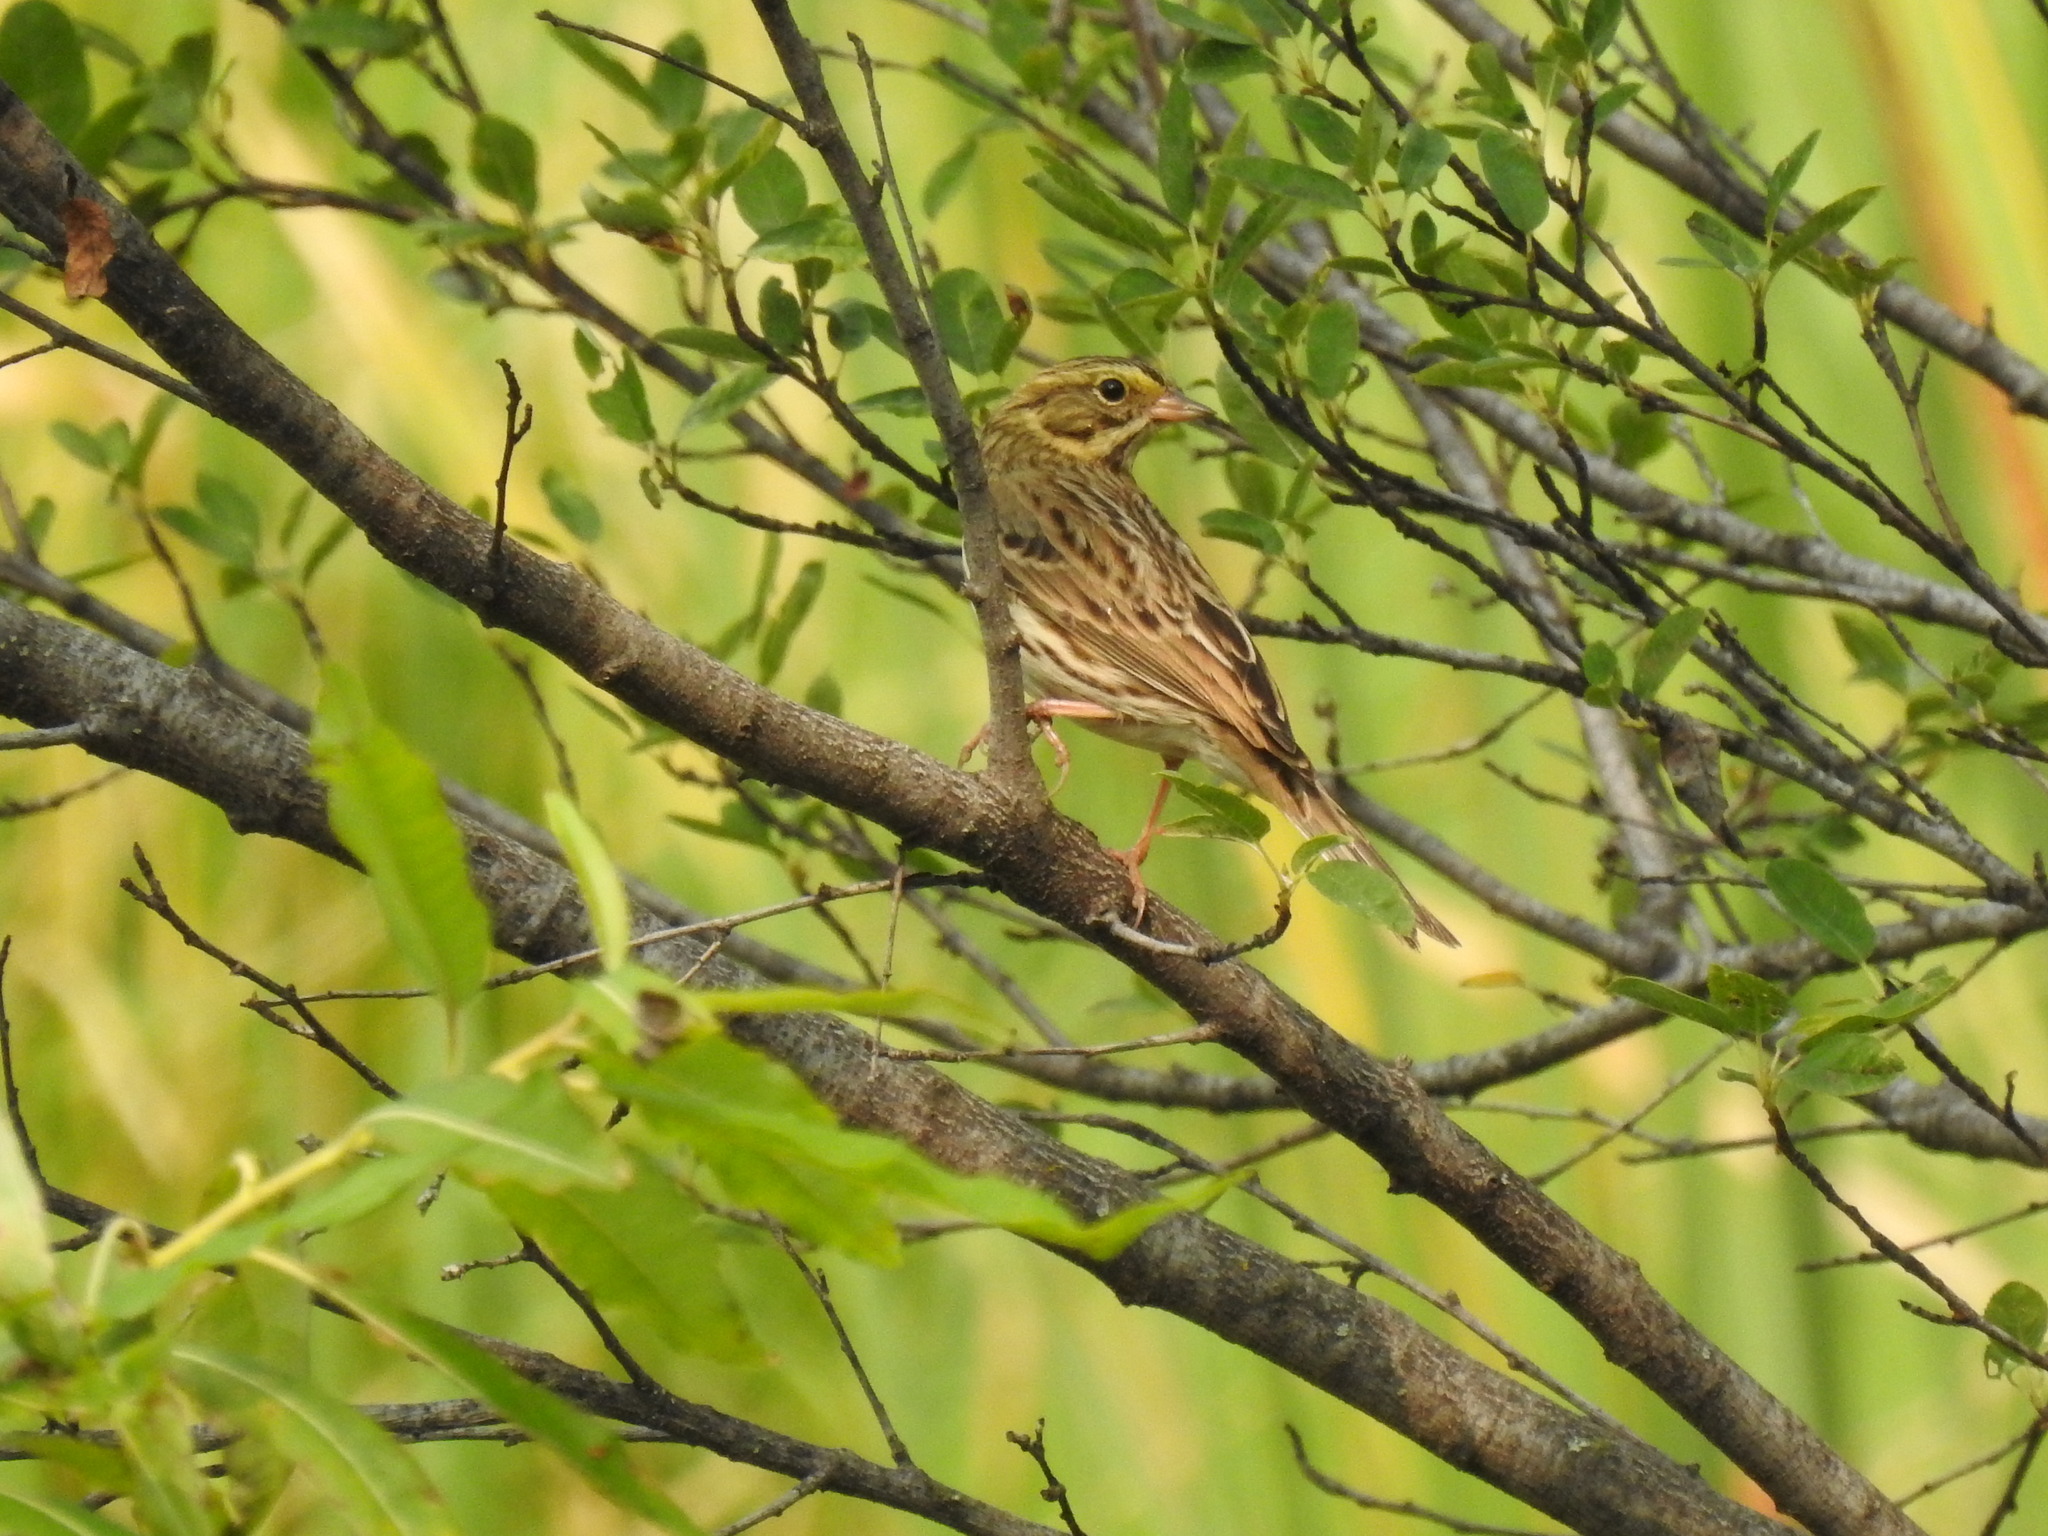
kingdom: Animalia
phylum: Chordata
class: Aves
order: Passeriformes
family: Passerellidae
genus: Passerculus
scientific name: Passerculus sandwichensis
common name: Savannah sparrow
